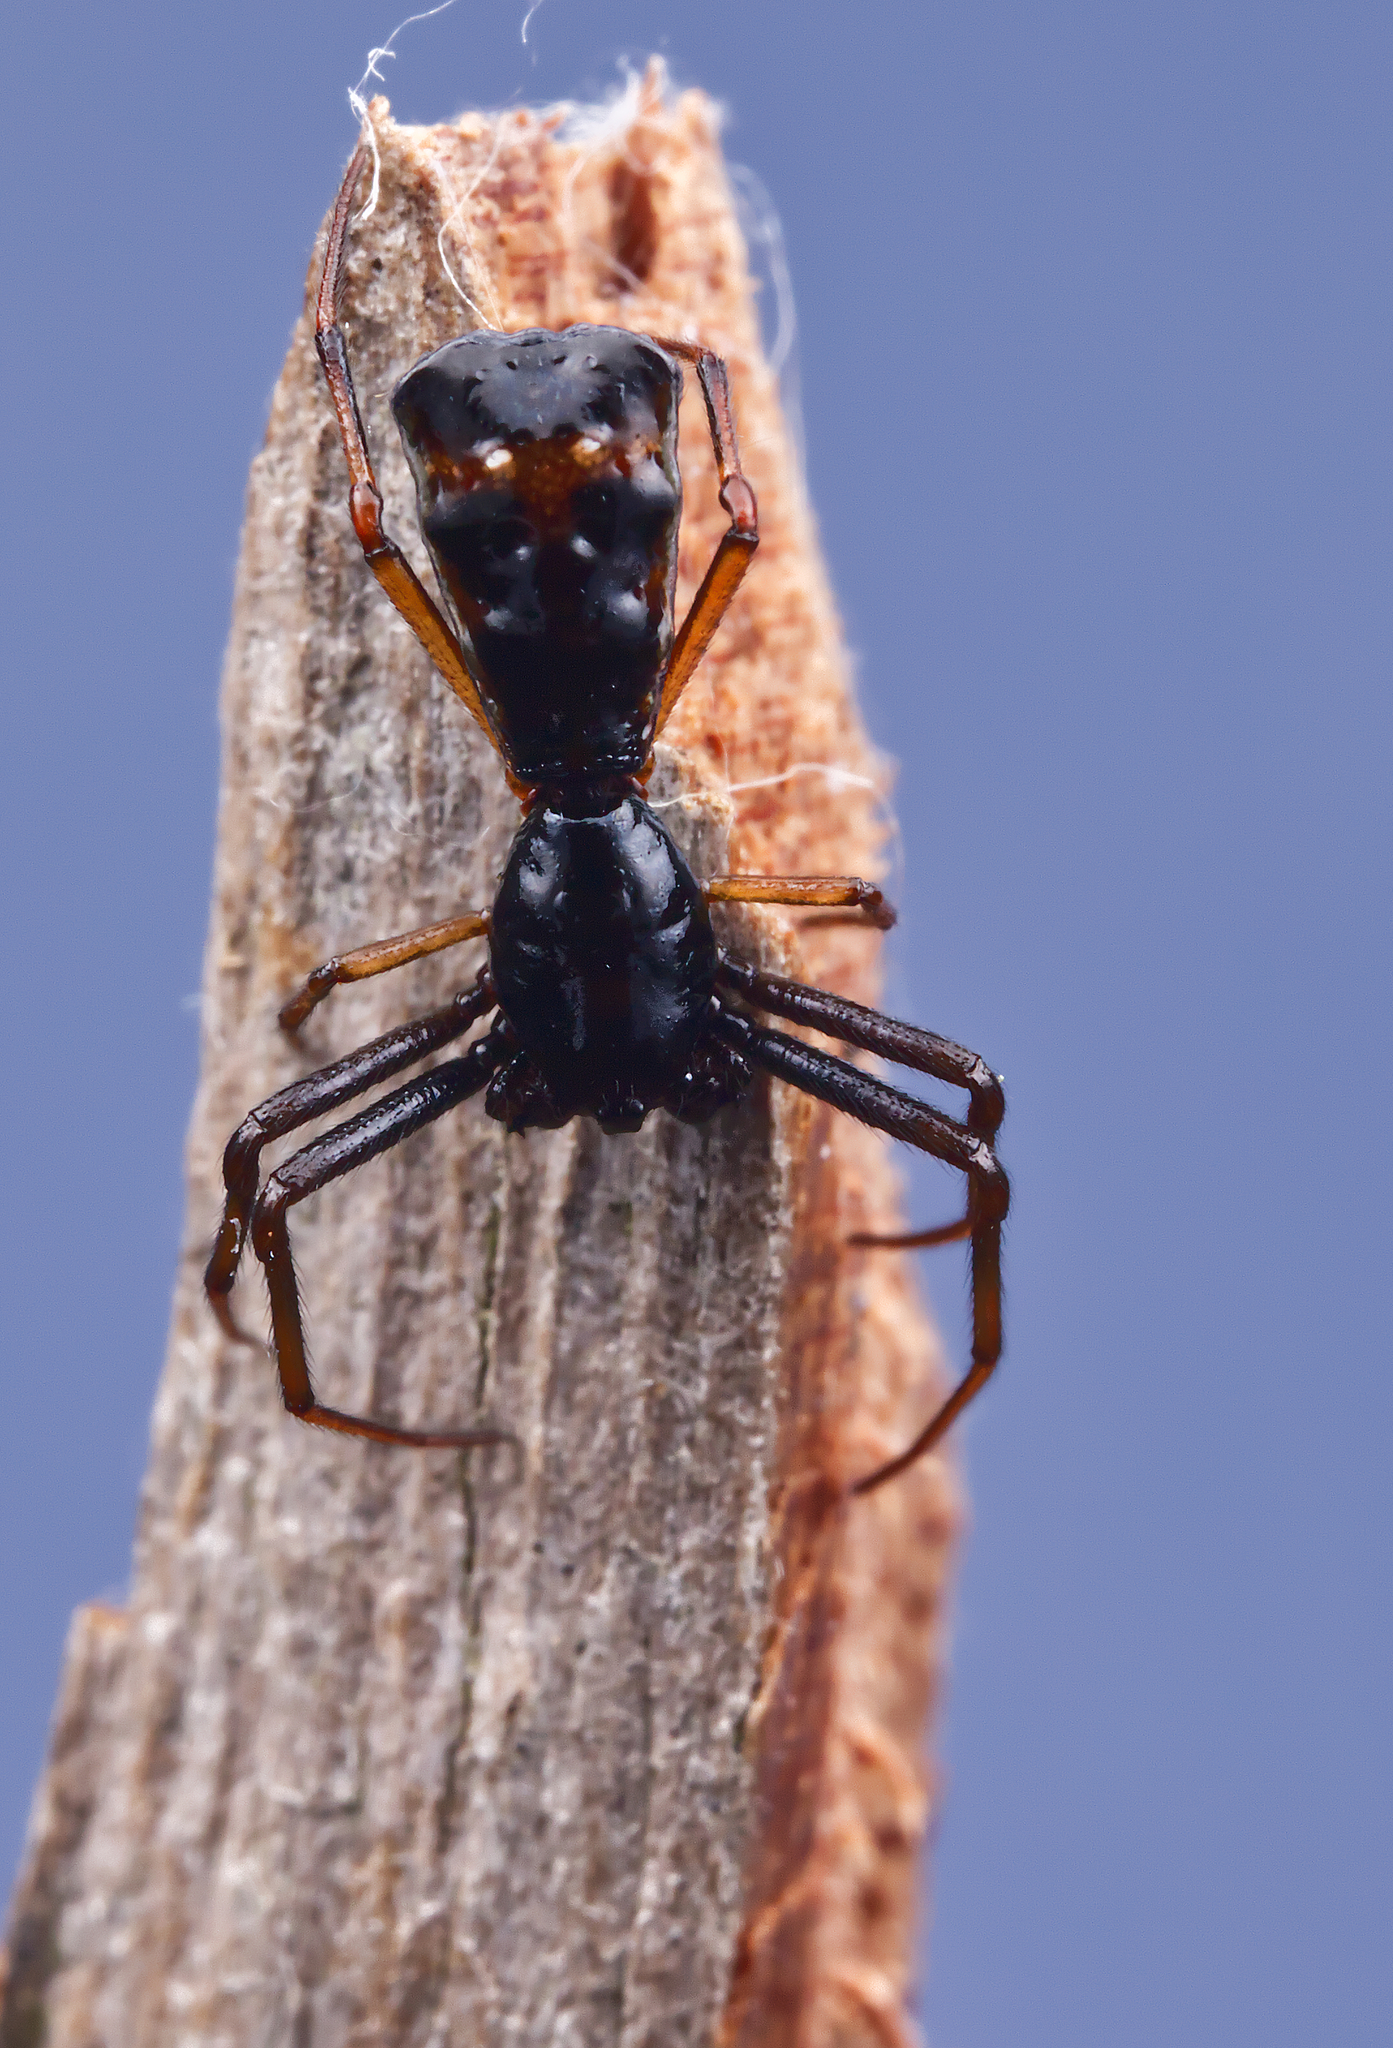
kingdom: Animalia
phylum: Arthropoda
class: Arachnida
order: Araneae
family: Araneidae
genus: Micrathena
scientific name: Micrathena sagittata
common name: Orb weavers
